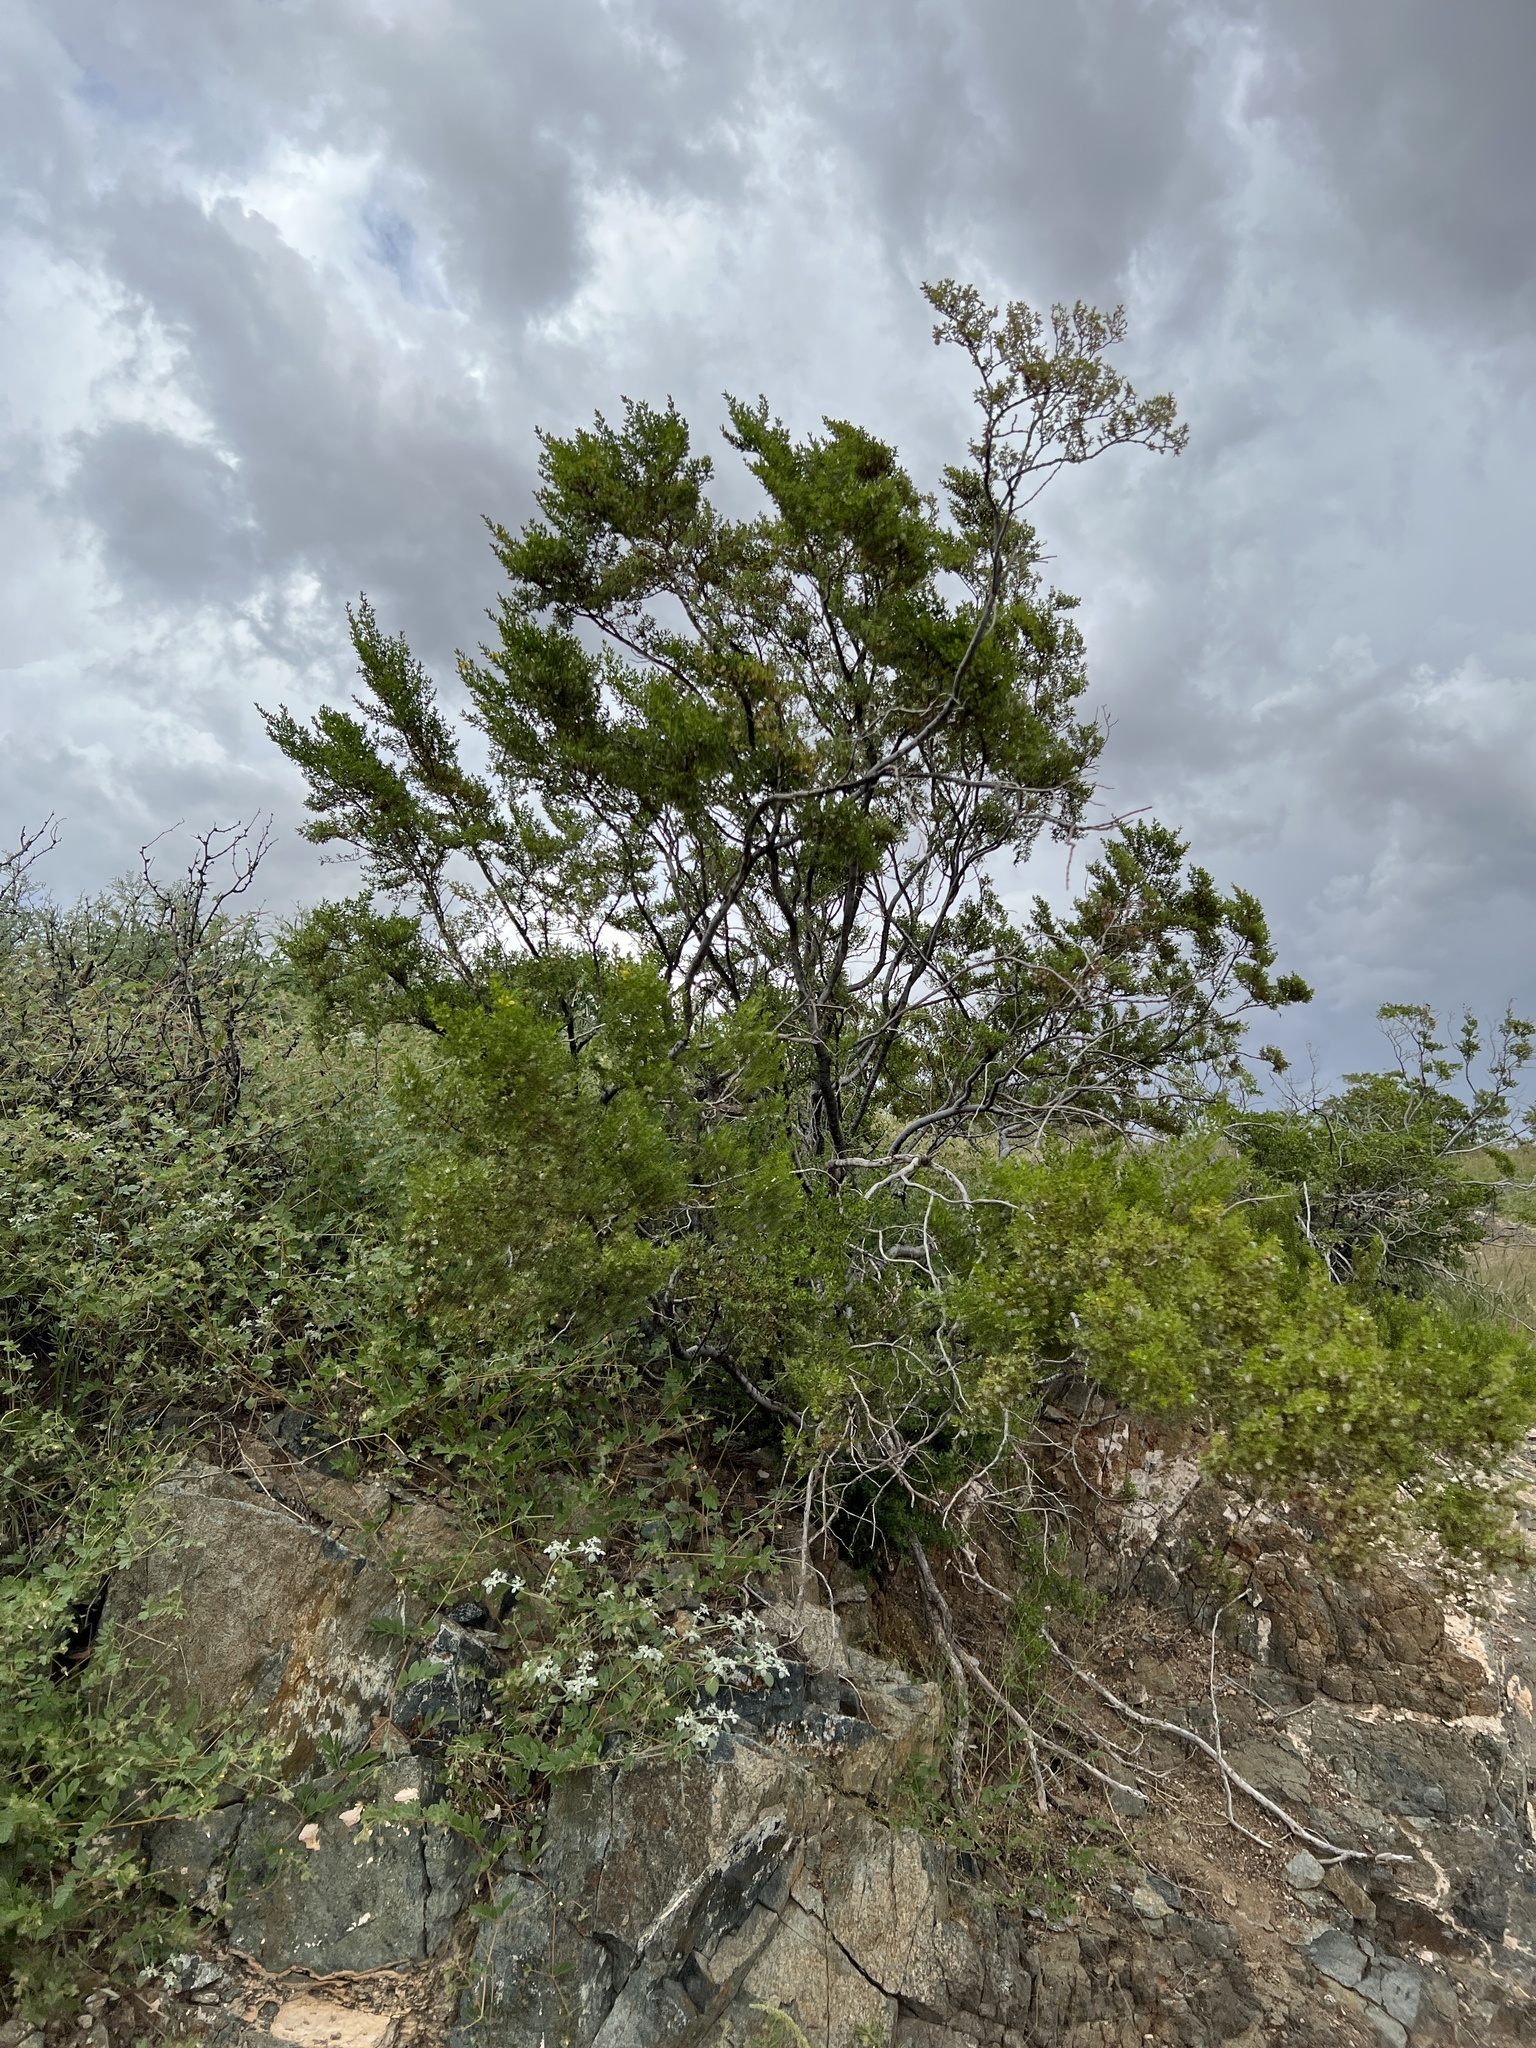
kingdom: Plantae
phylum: Tracheophyta
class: Magnoliopsida
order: Zygophyllales
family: Zygophyllaceae
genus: Larrea
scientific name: Larrea tridentata
